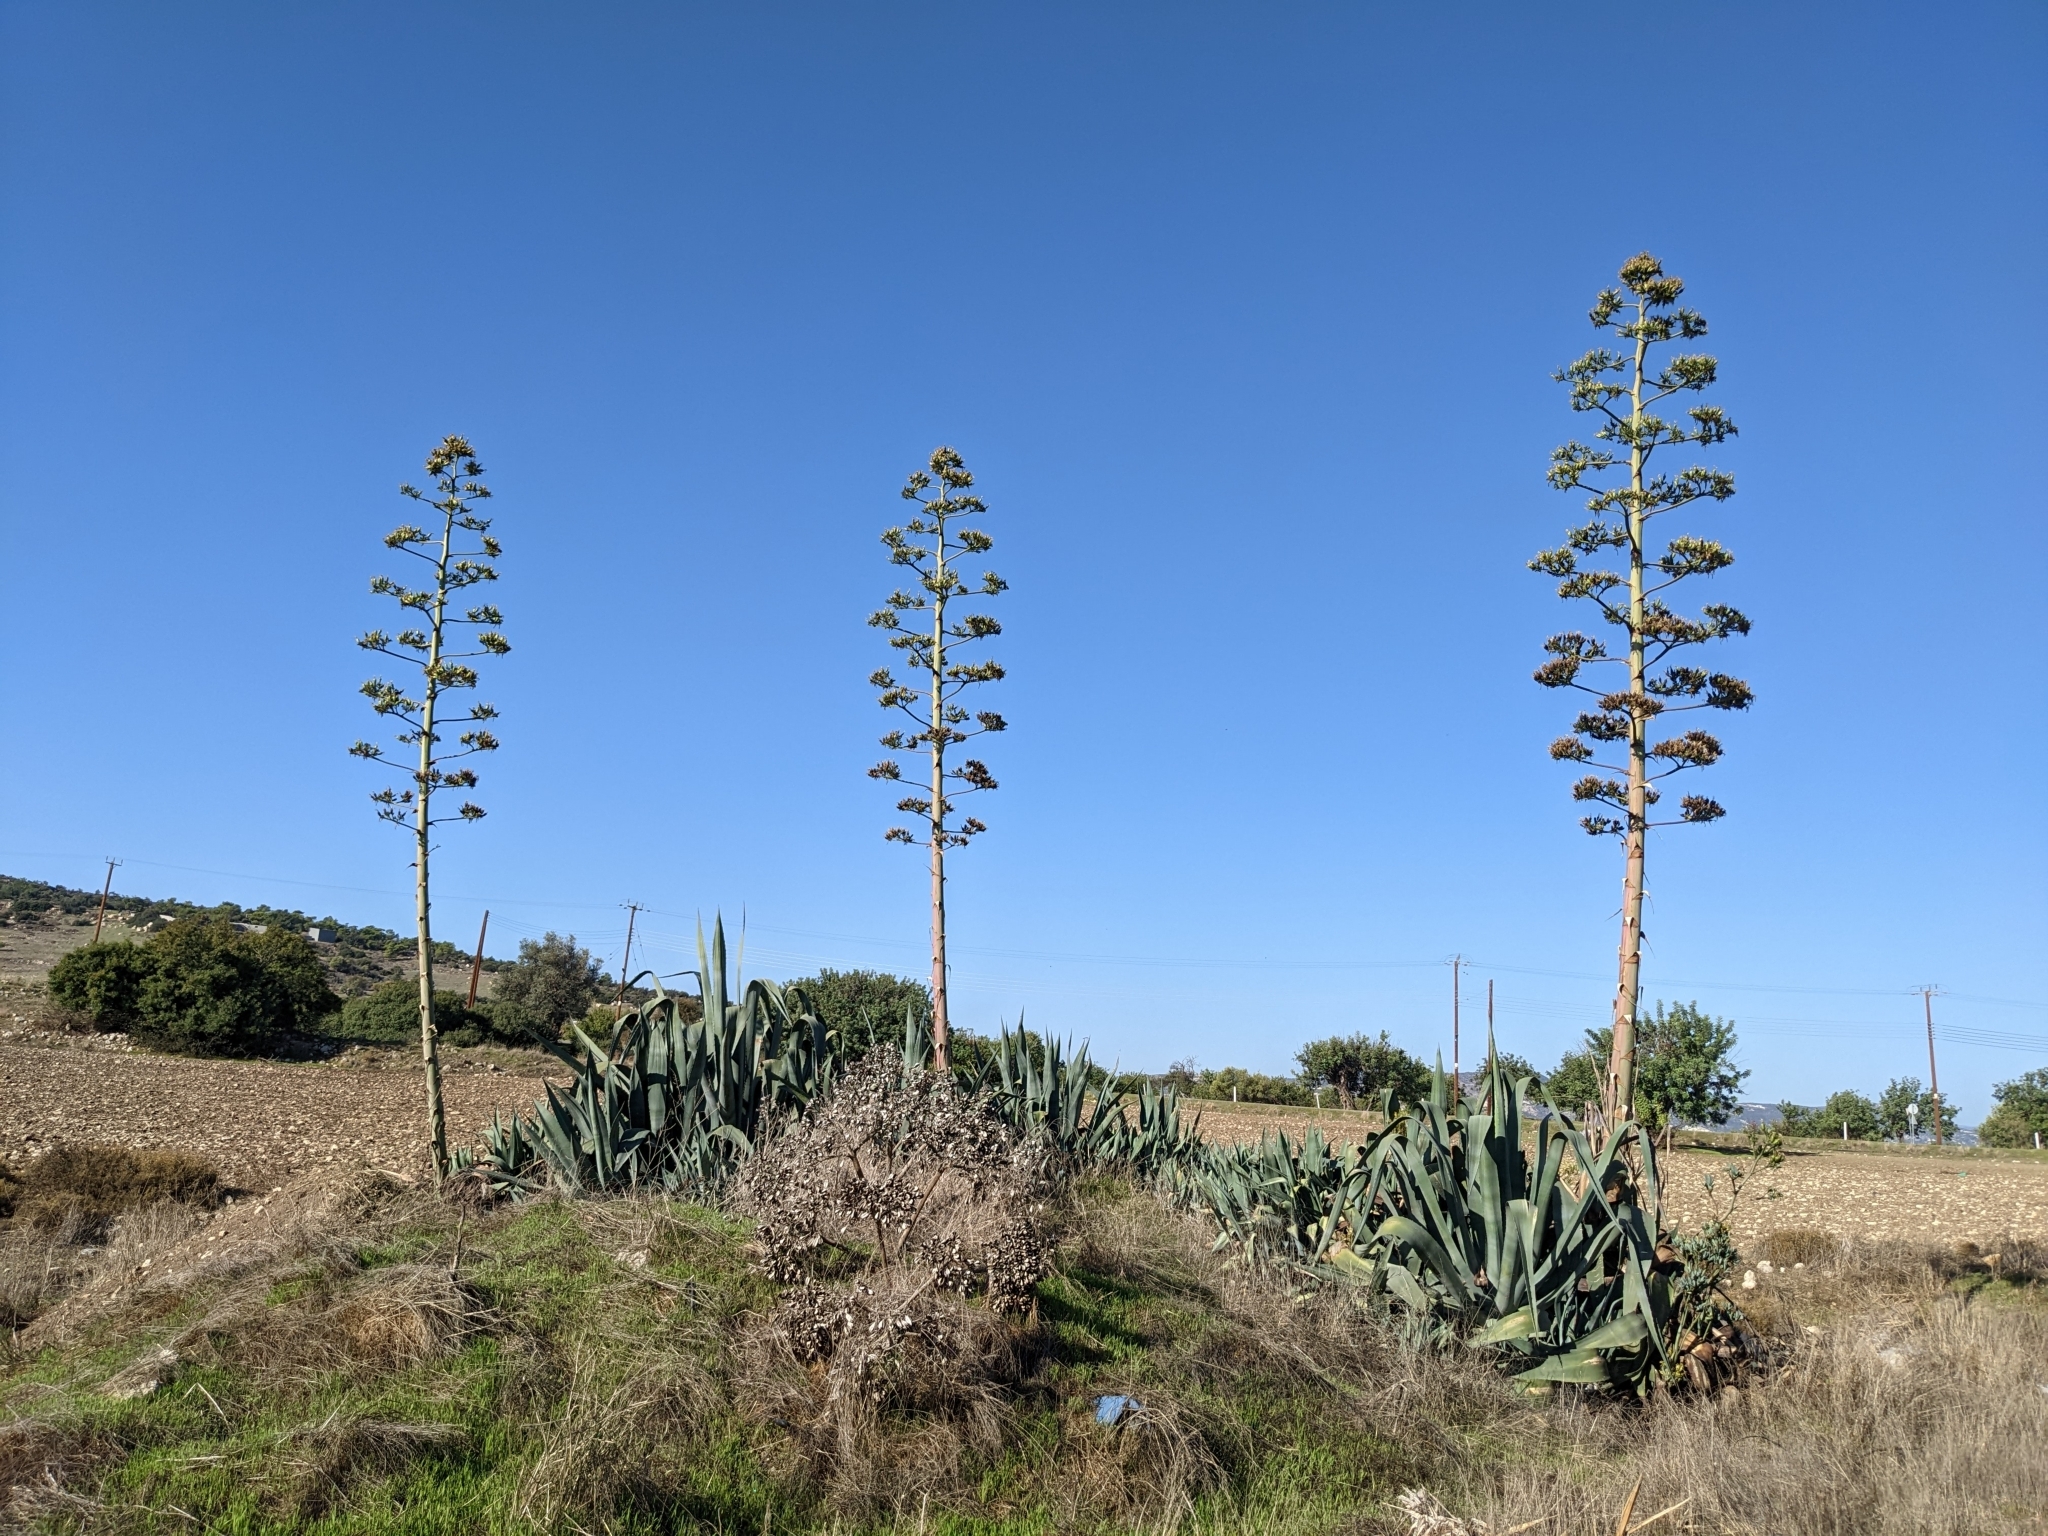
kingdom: Plantae
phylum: Tracheophyta
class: Liliopsida
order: Asparagales
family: Asparagaceae
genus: Agave
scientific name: Agave americana
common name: Centuryplant
